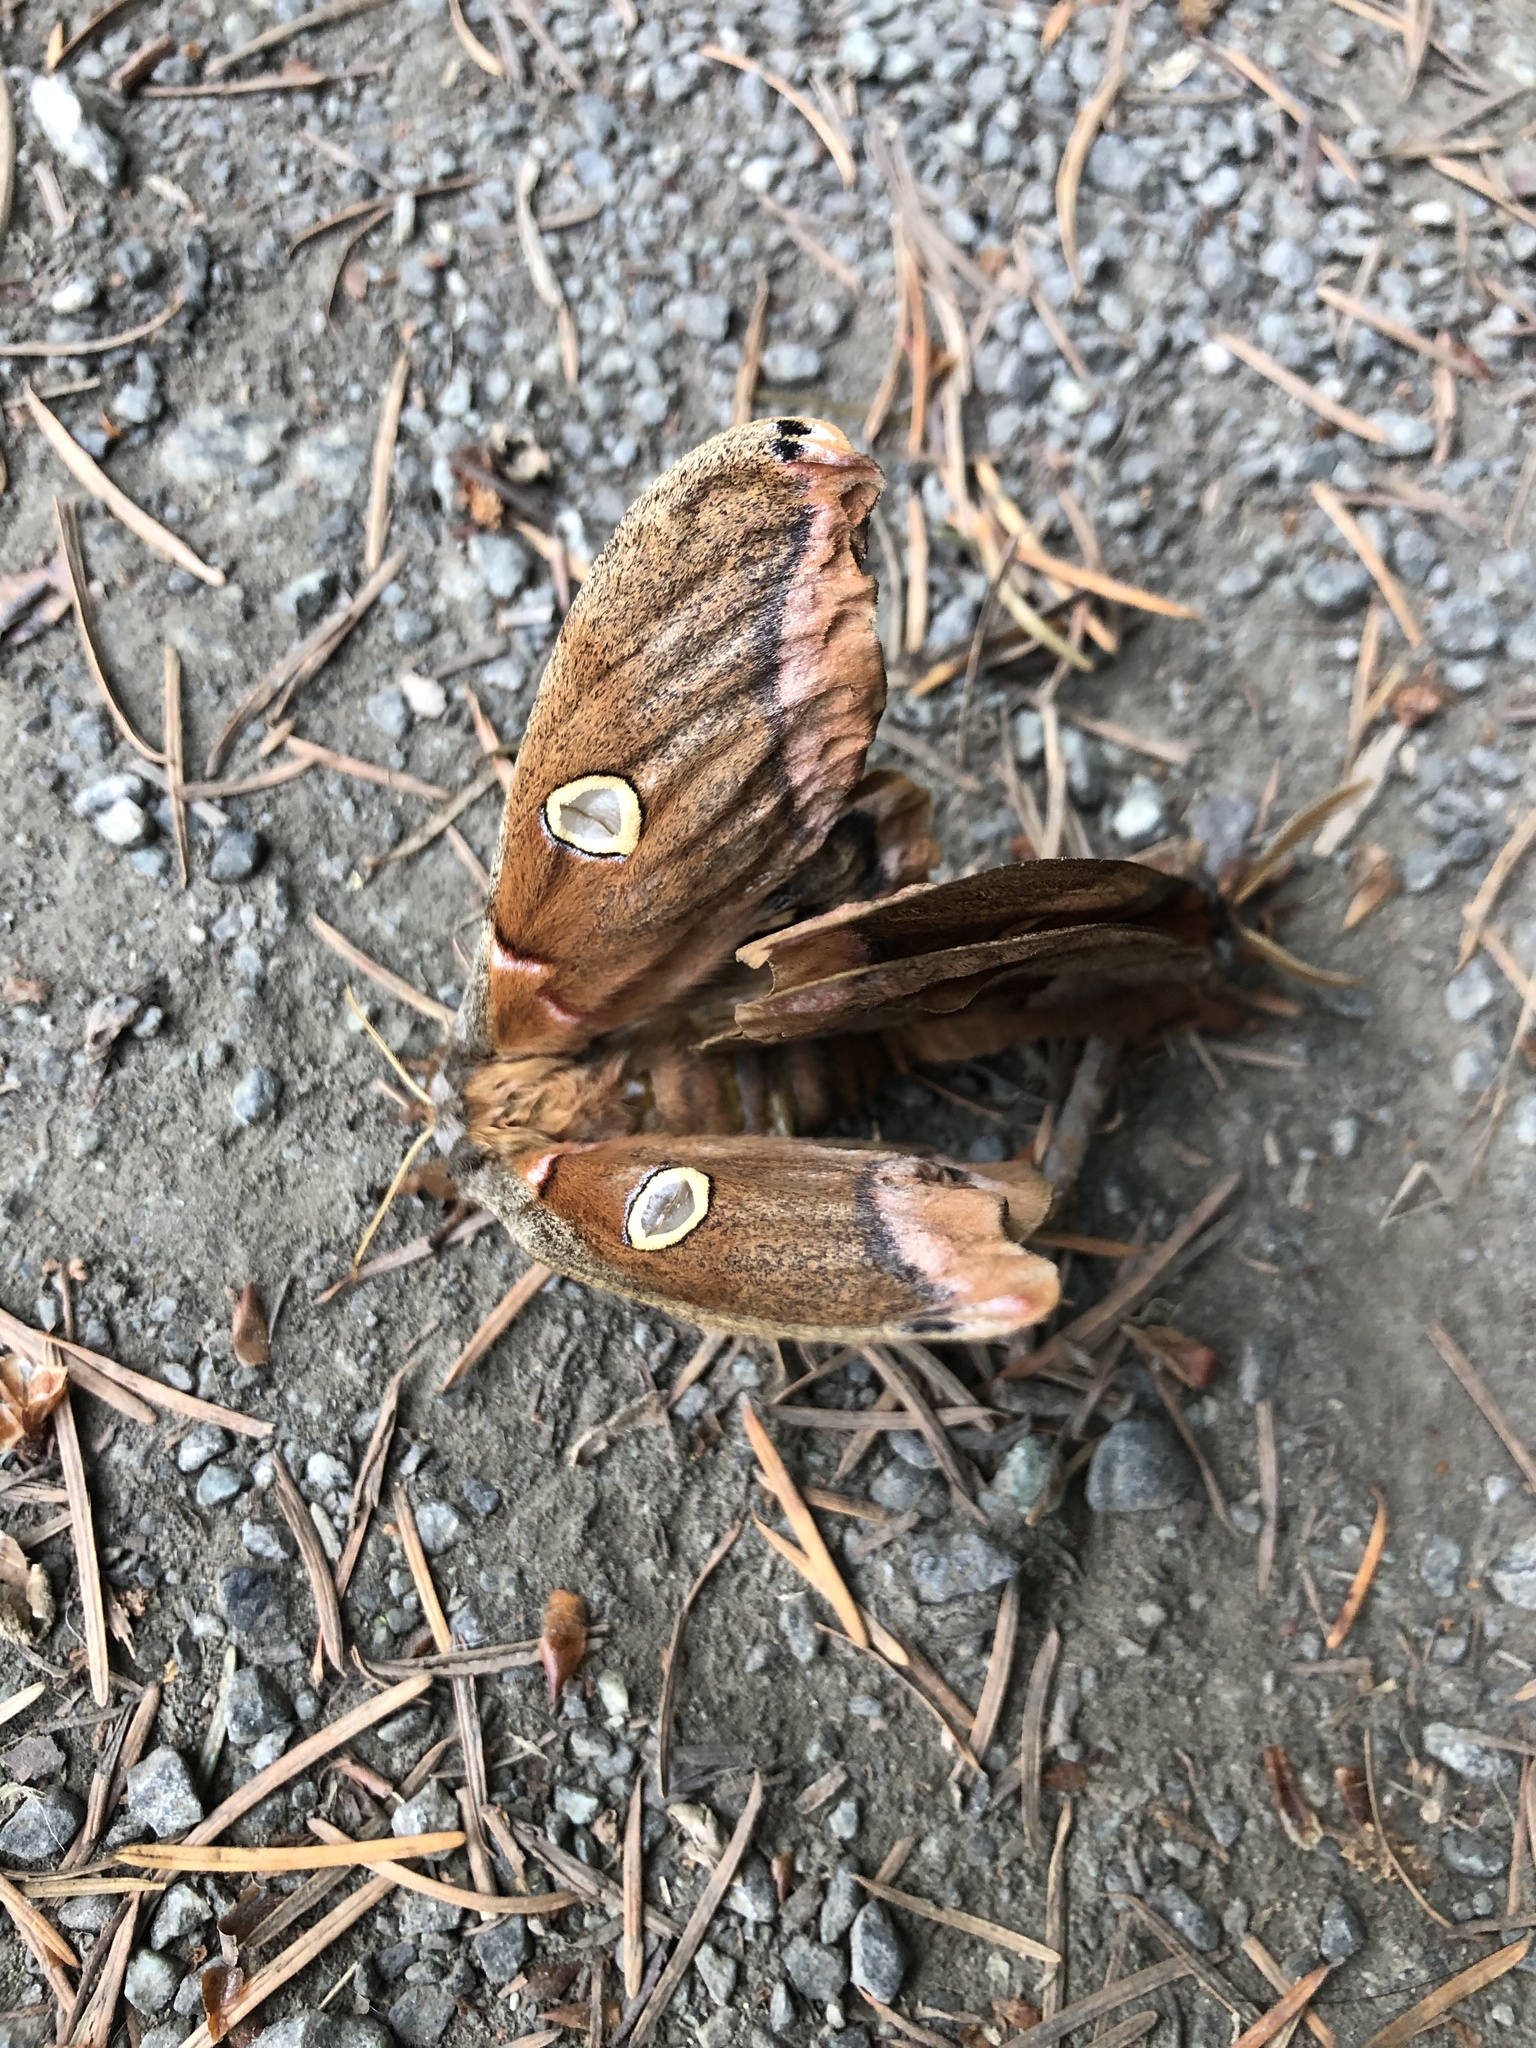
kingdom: Animalia
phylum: Arthropoda
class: Insecta
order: Lepidoptera
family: Saturniidae
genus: Antheraea
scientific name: Antheraea polyphemus
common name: Polyphemus moth
